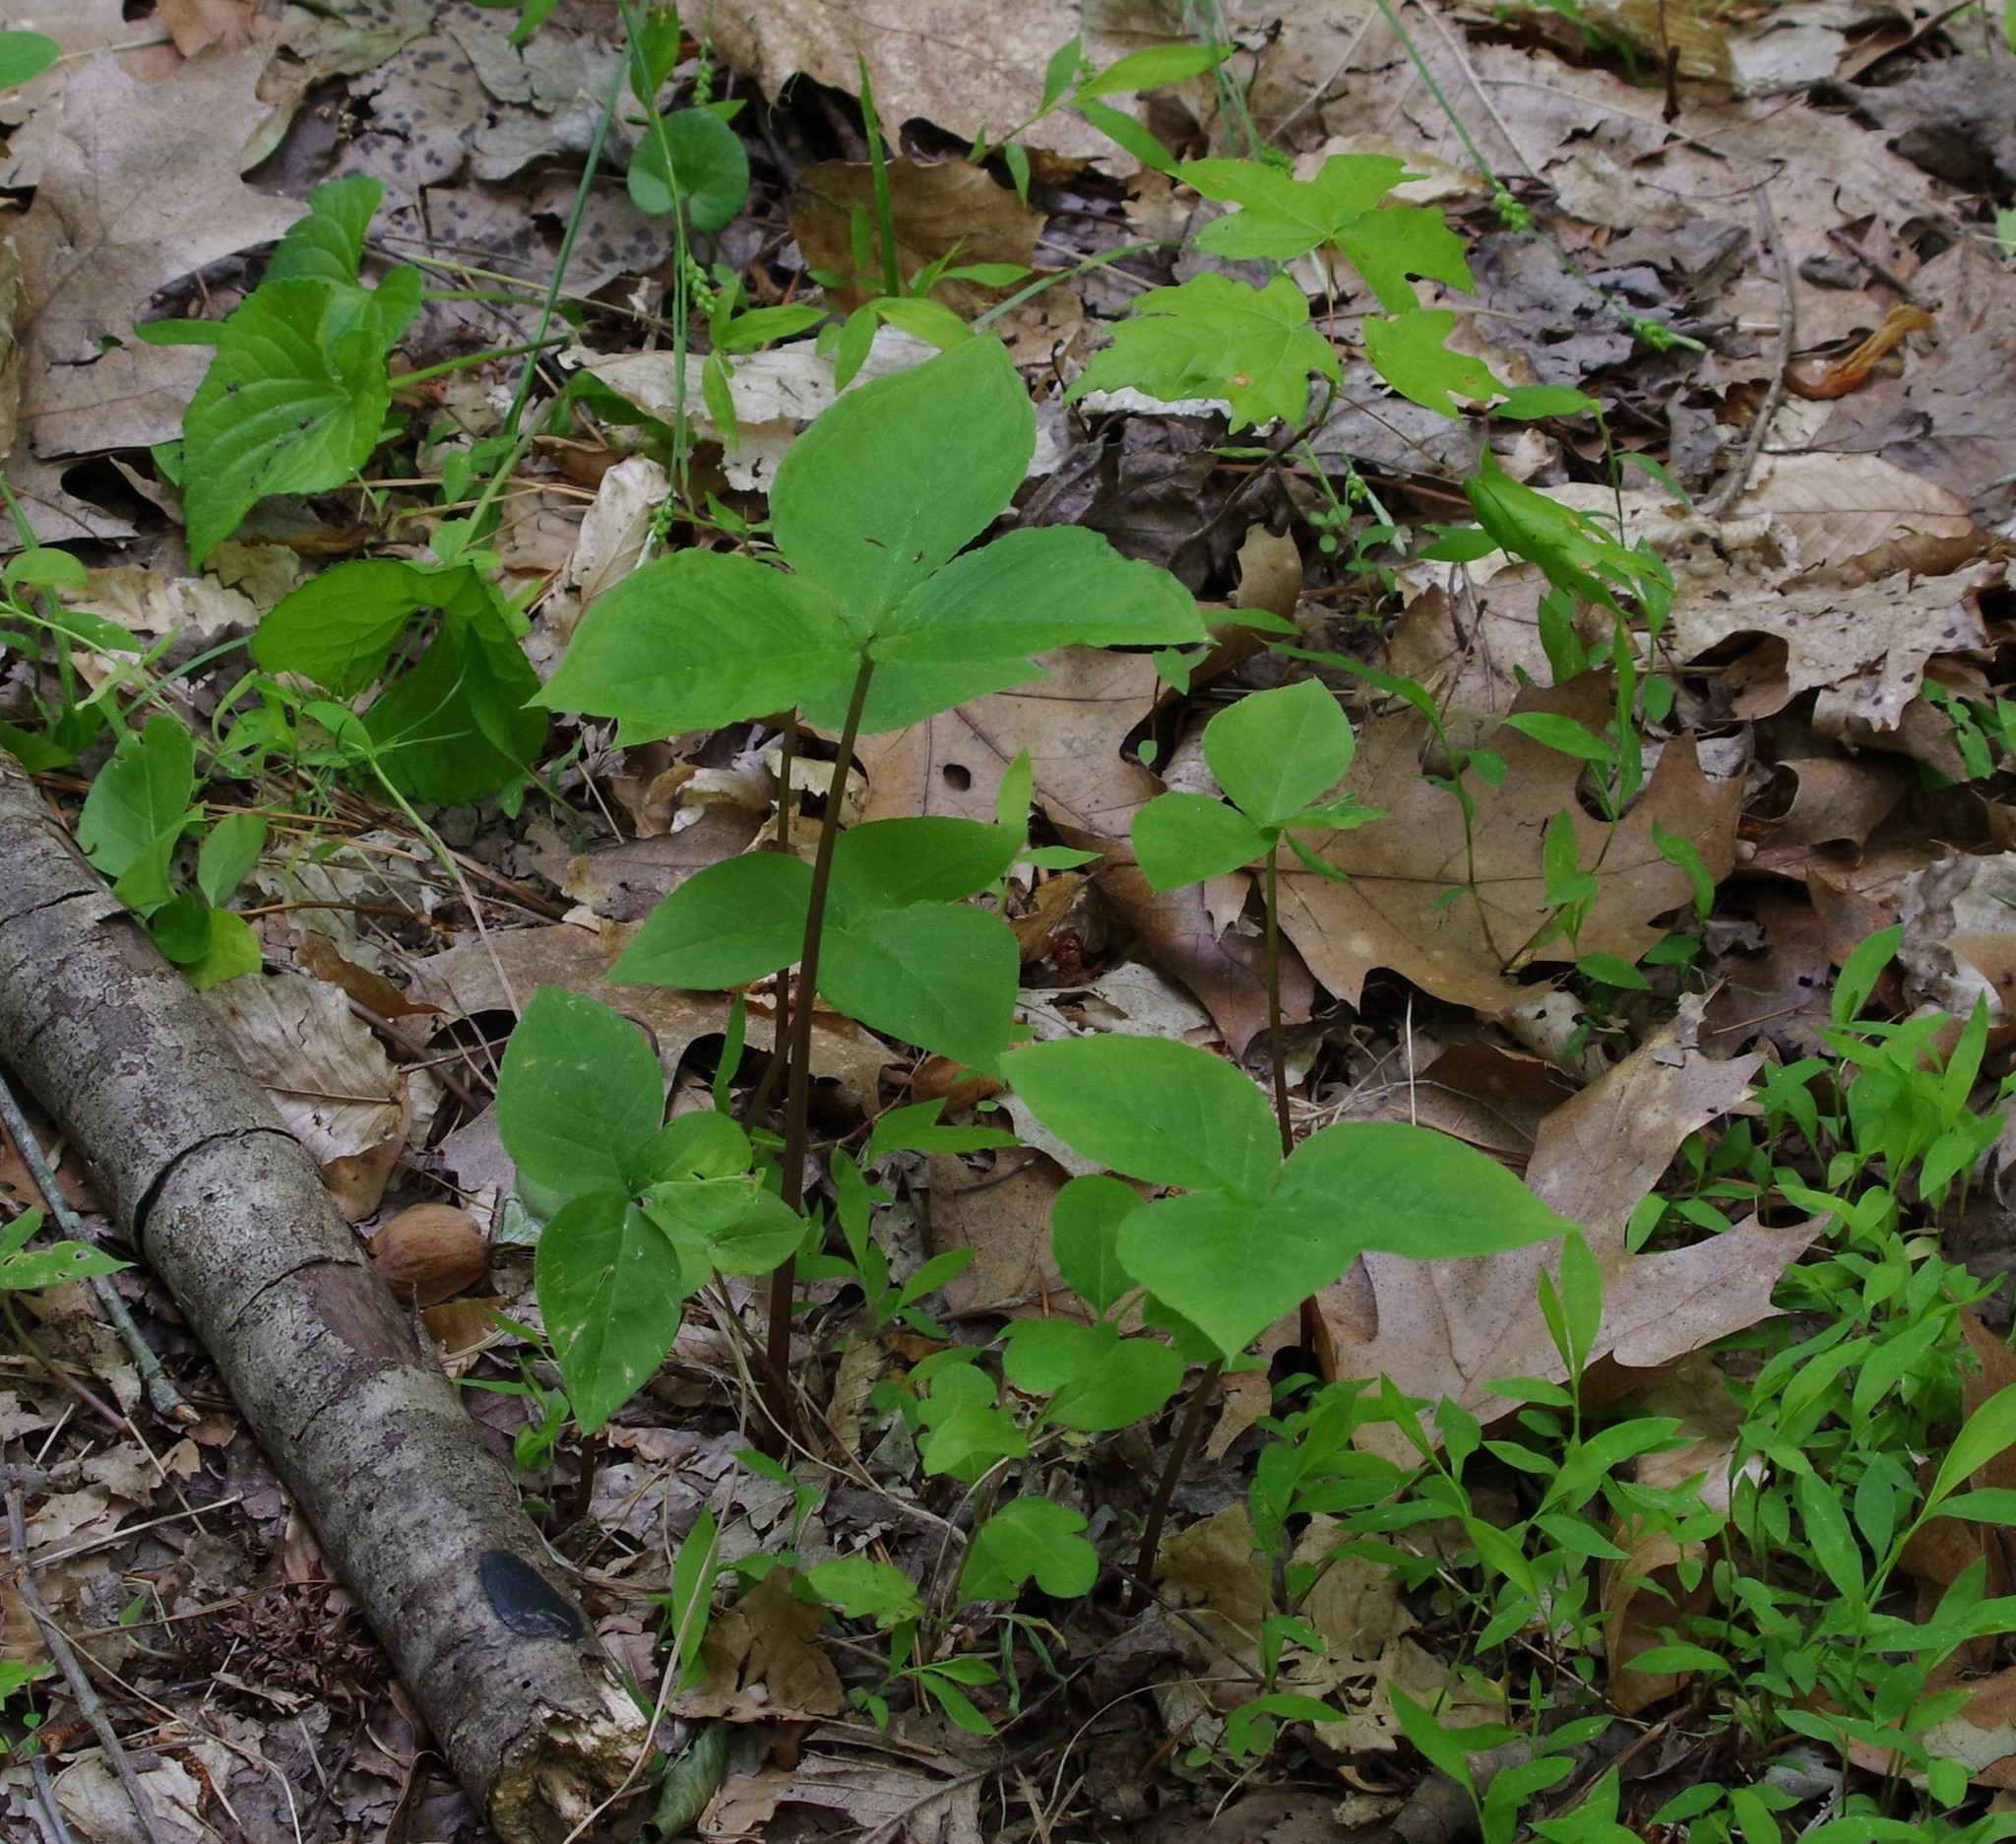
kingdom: Plantae
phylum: Tracheophyta
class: Liliopsida
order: Alismatales
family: Araceae
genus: Arisaema
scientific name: Arisaema triphyllum
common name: Jack-in-the-pulpit
